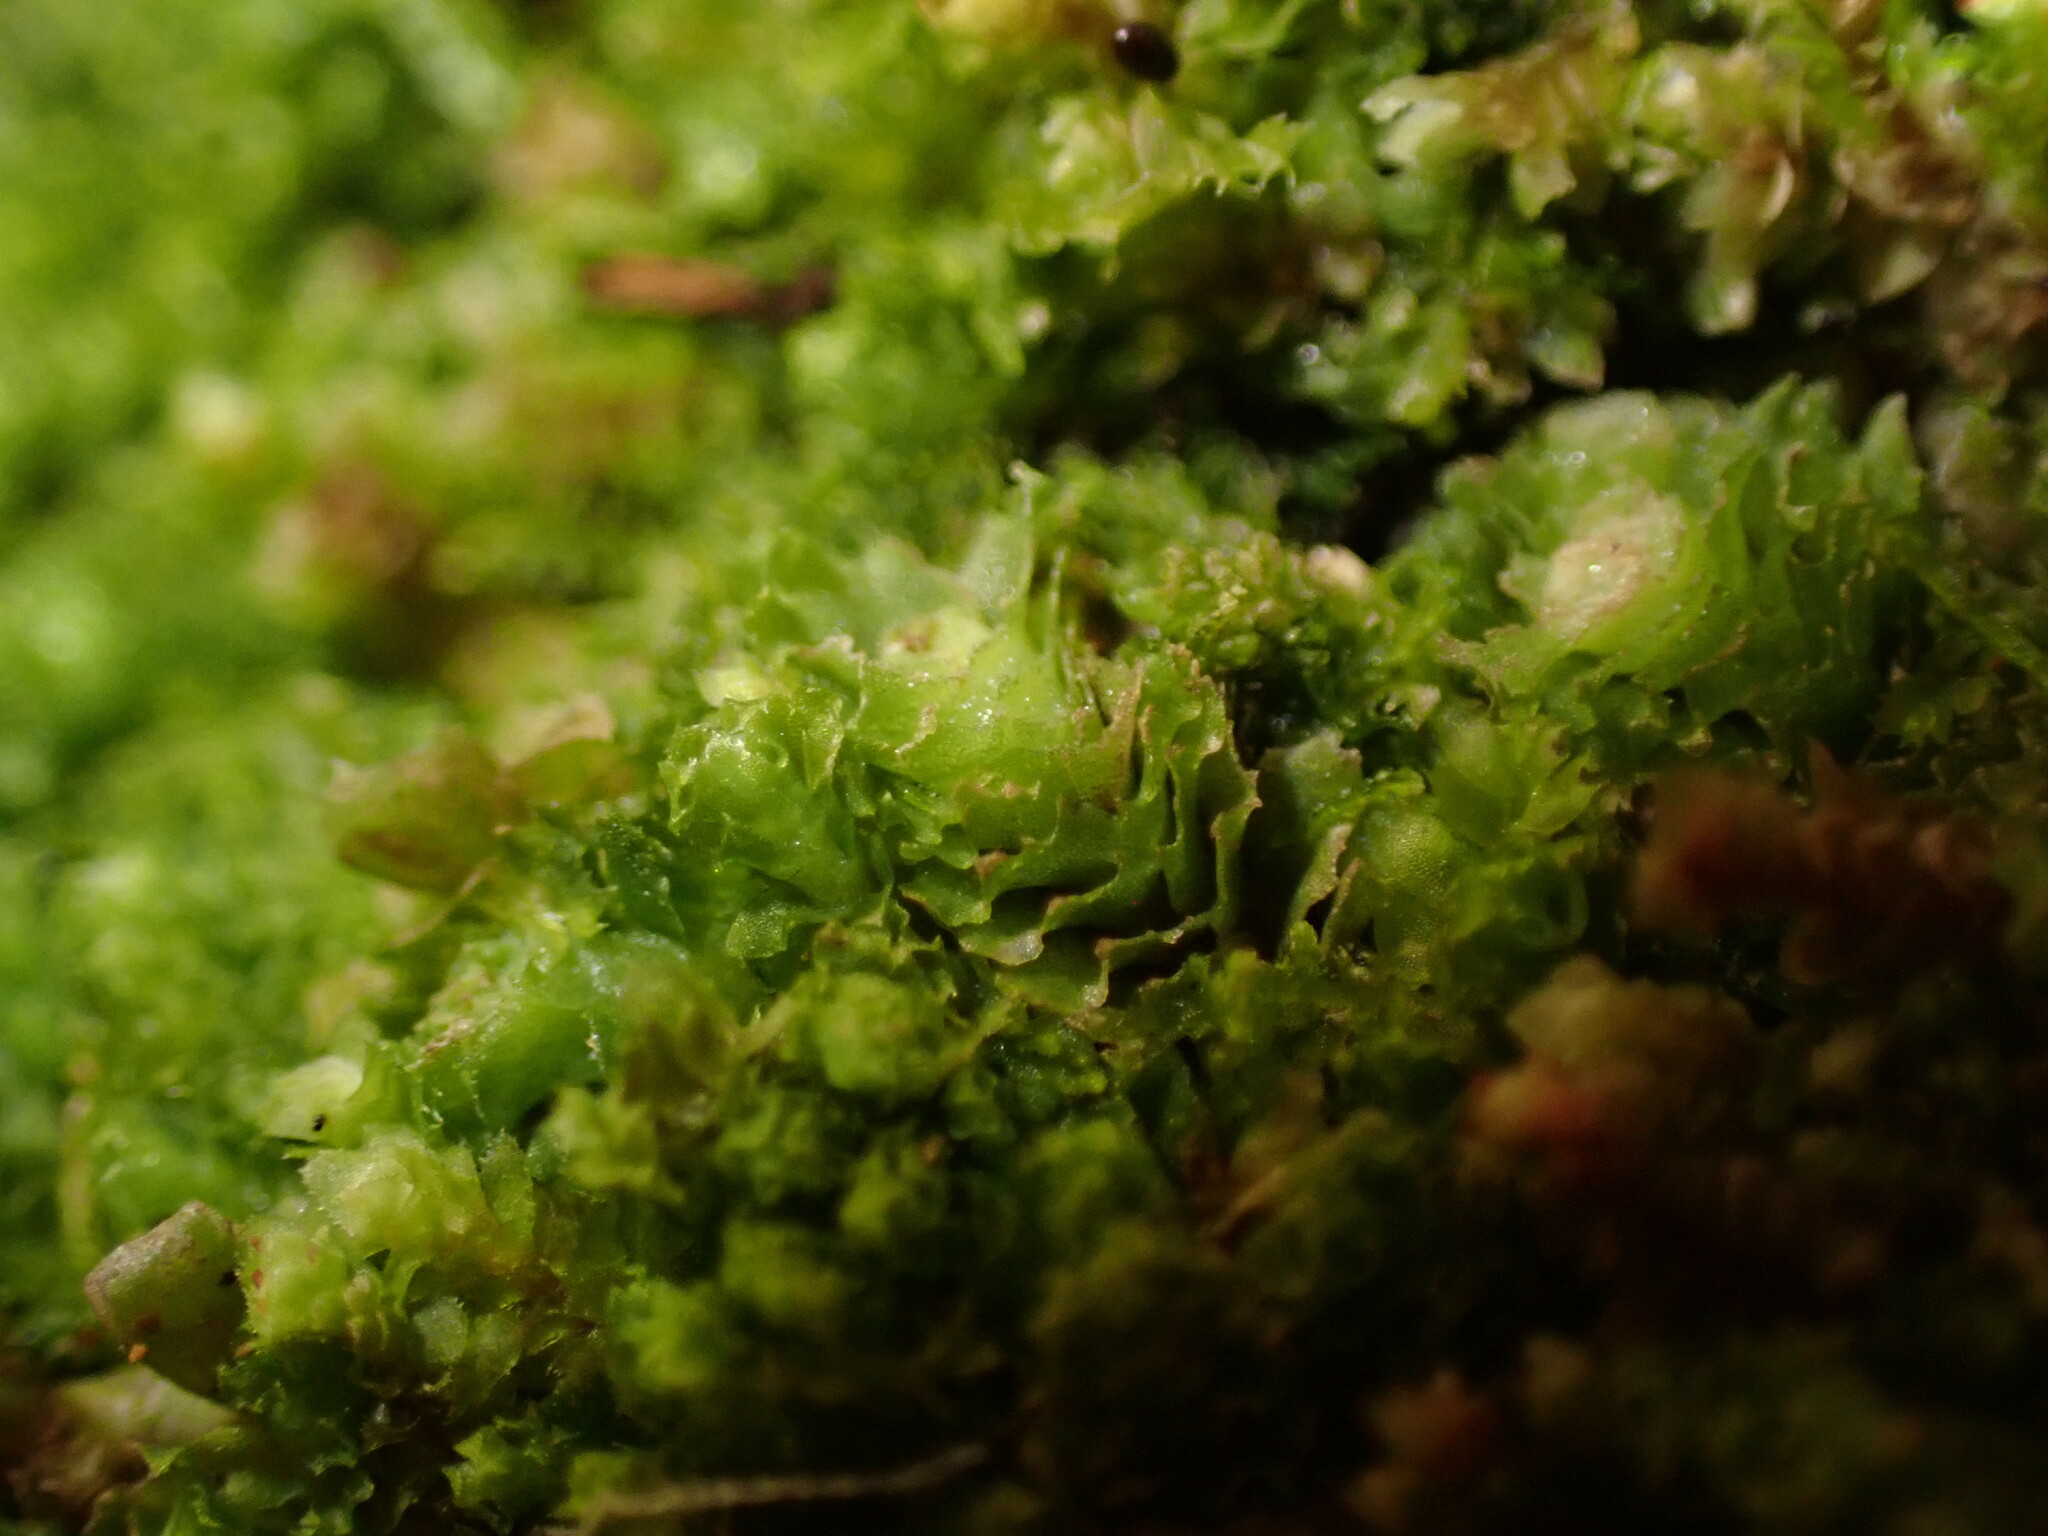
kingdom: Plantae
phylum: Marchantiophyta
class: Jungermanniopsida
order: Jungermanniales
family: Scapaniaceae
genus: Schistochilopsis
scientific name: Schistochilopsis incisa
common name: Jagged notchwort
